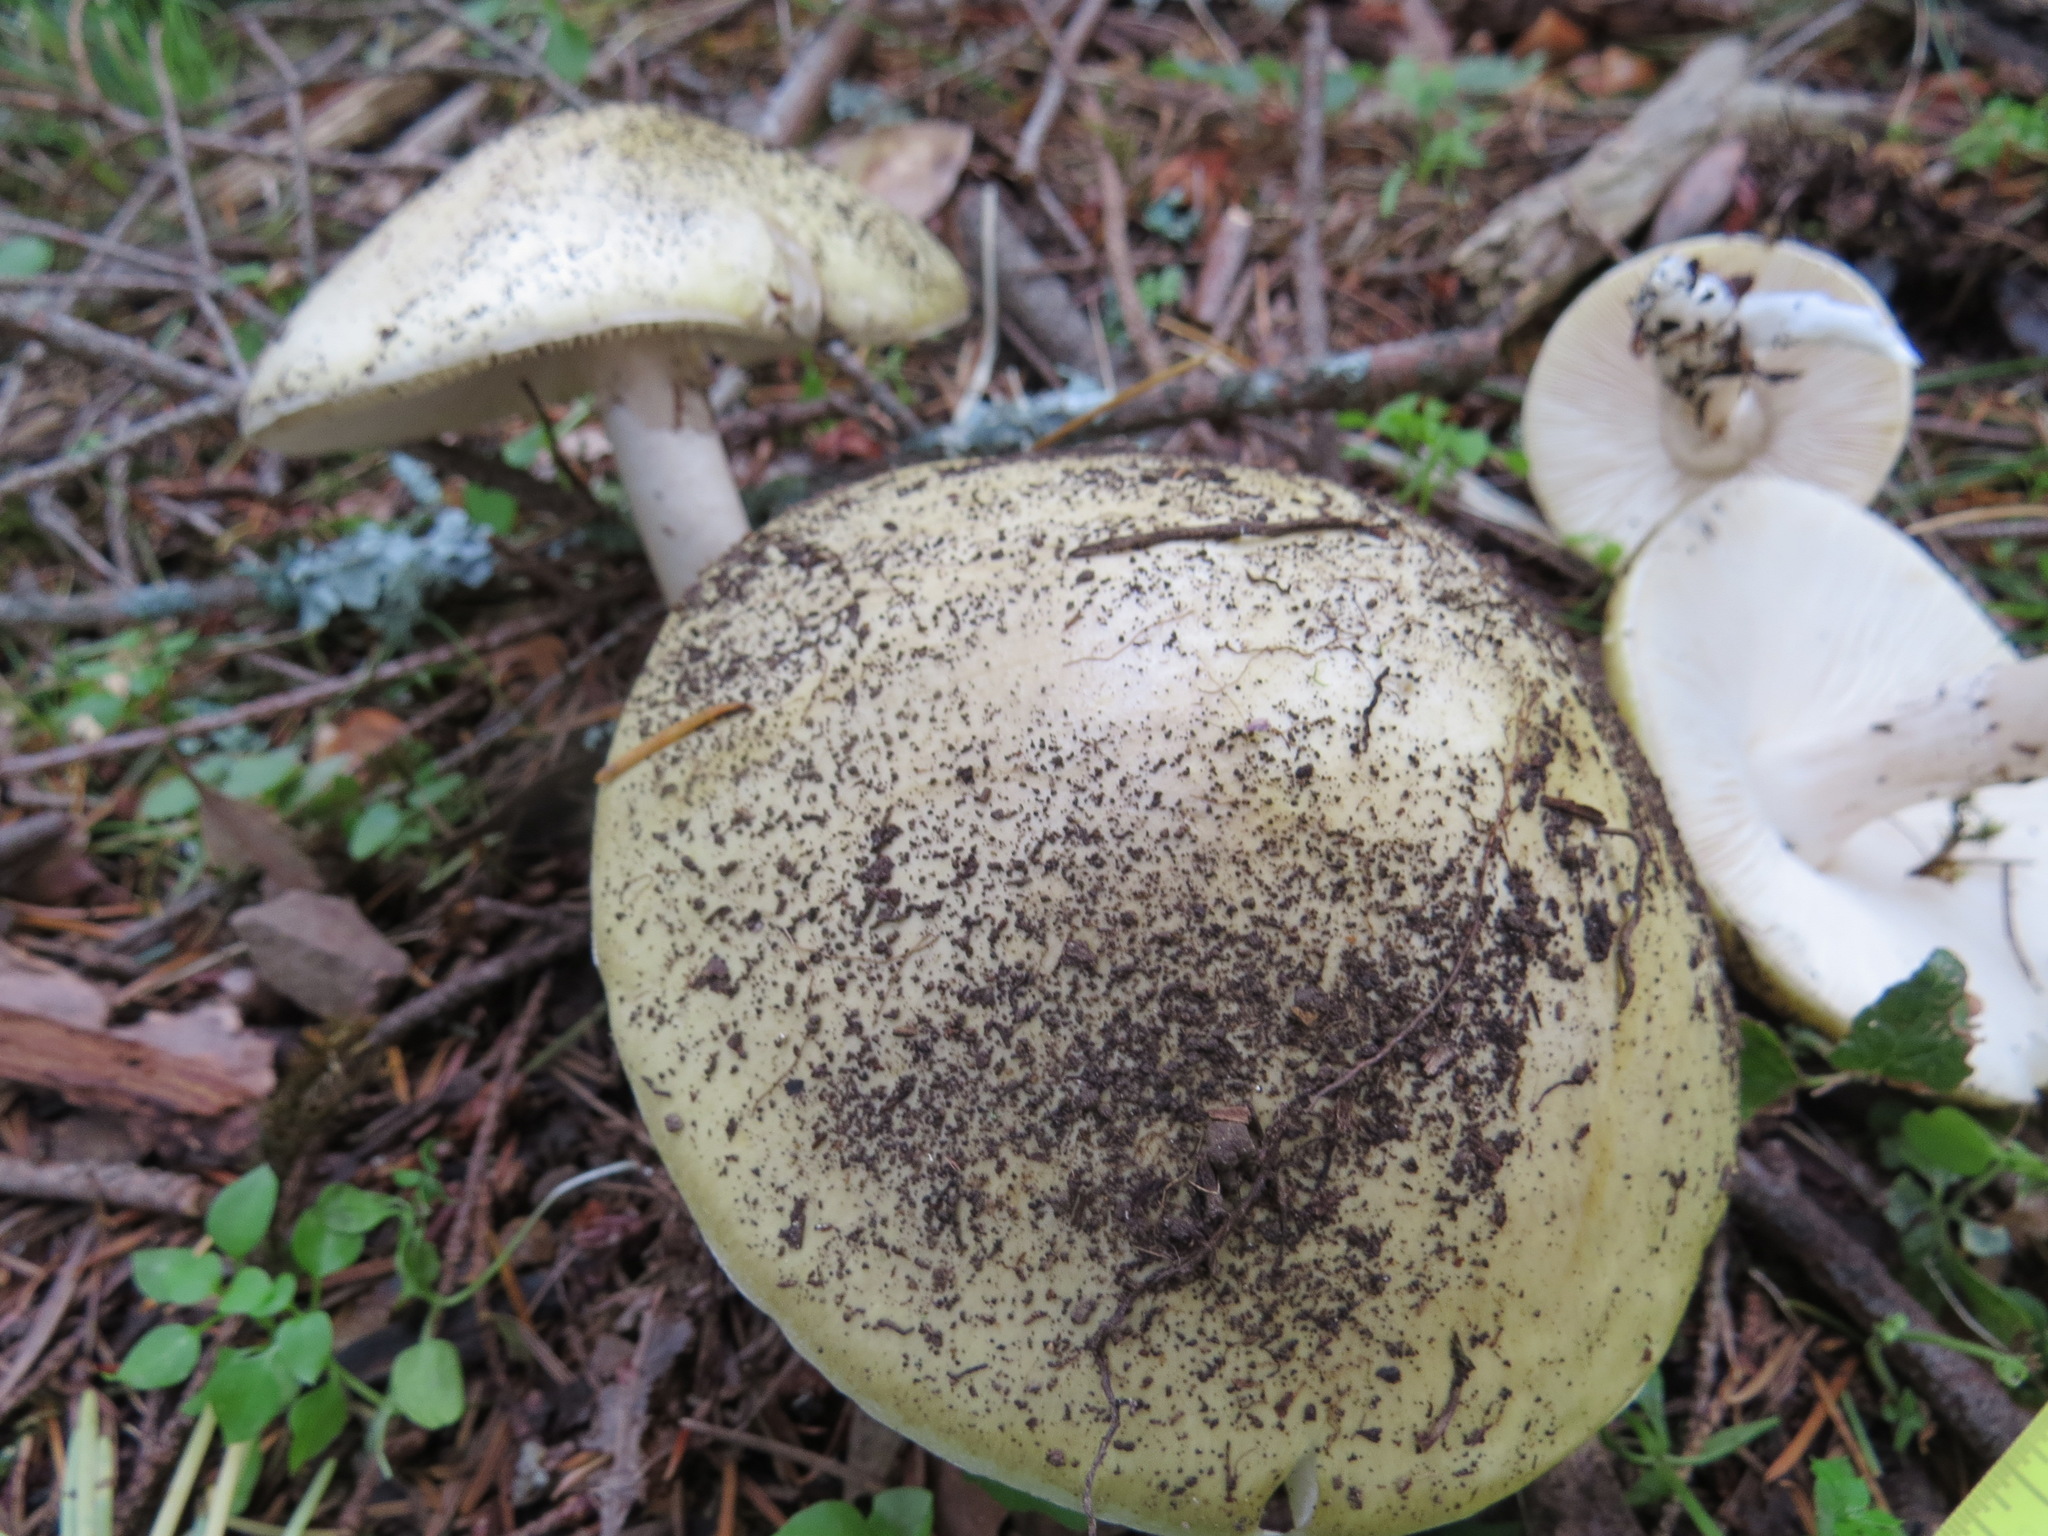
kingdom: Fungi
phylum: Basidiomycota
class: Agaricomycetes
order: Agaricales
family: Amanitaceae
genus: Amanita
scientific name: Amanita phalloides
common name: Death cap
